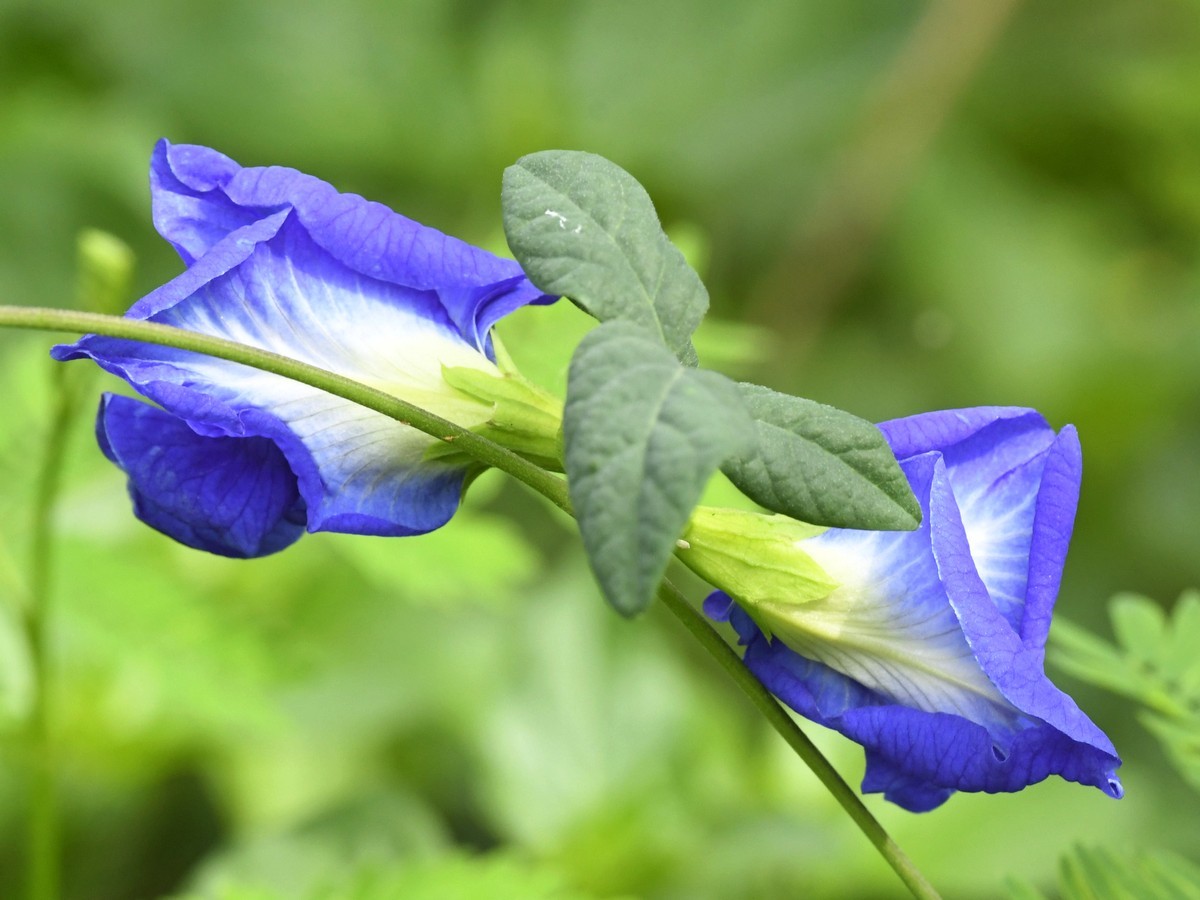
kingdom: Plantae
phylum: Tracheophyta
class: Magnoliopsida
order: Fabales
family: Fabaceae
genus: Clitoria
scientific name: Clitoria ternatea
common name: Asian pigeonwings
